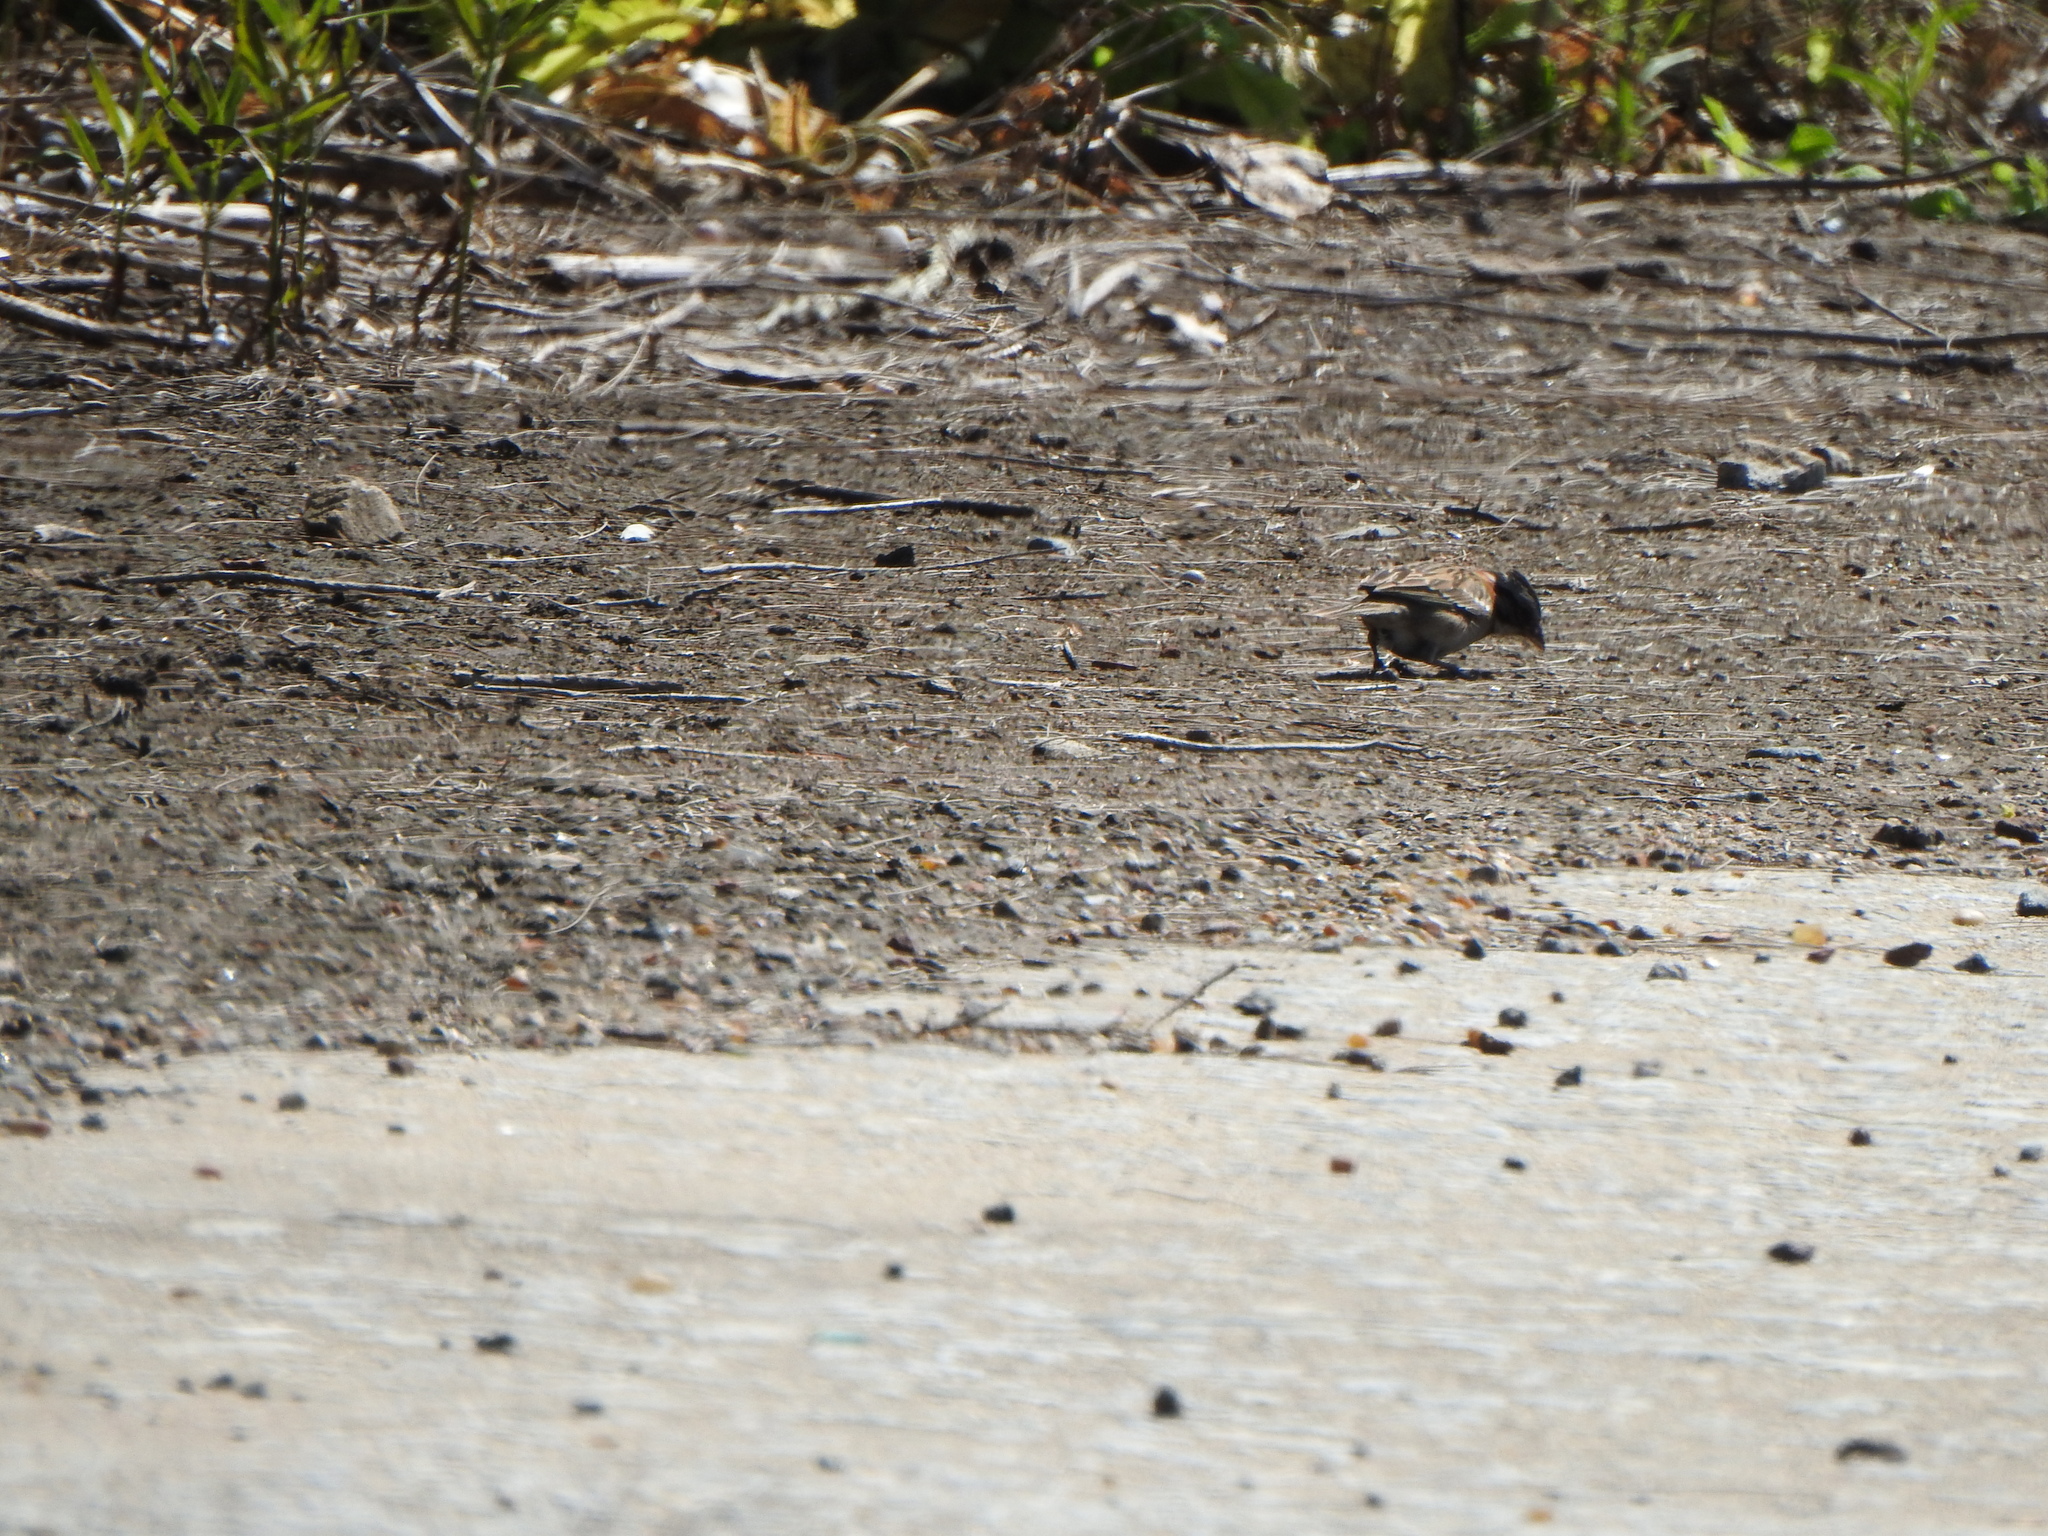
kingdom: Animalia
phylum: Chordata
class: Aves
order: Passeriformes
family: Passerellidae
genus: Zonotrichia
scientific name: Zonotrichia capensis
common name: Rufous-collared sparrow
